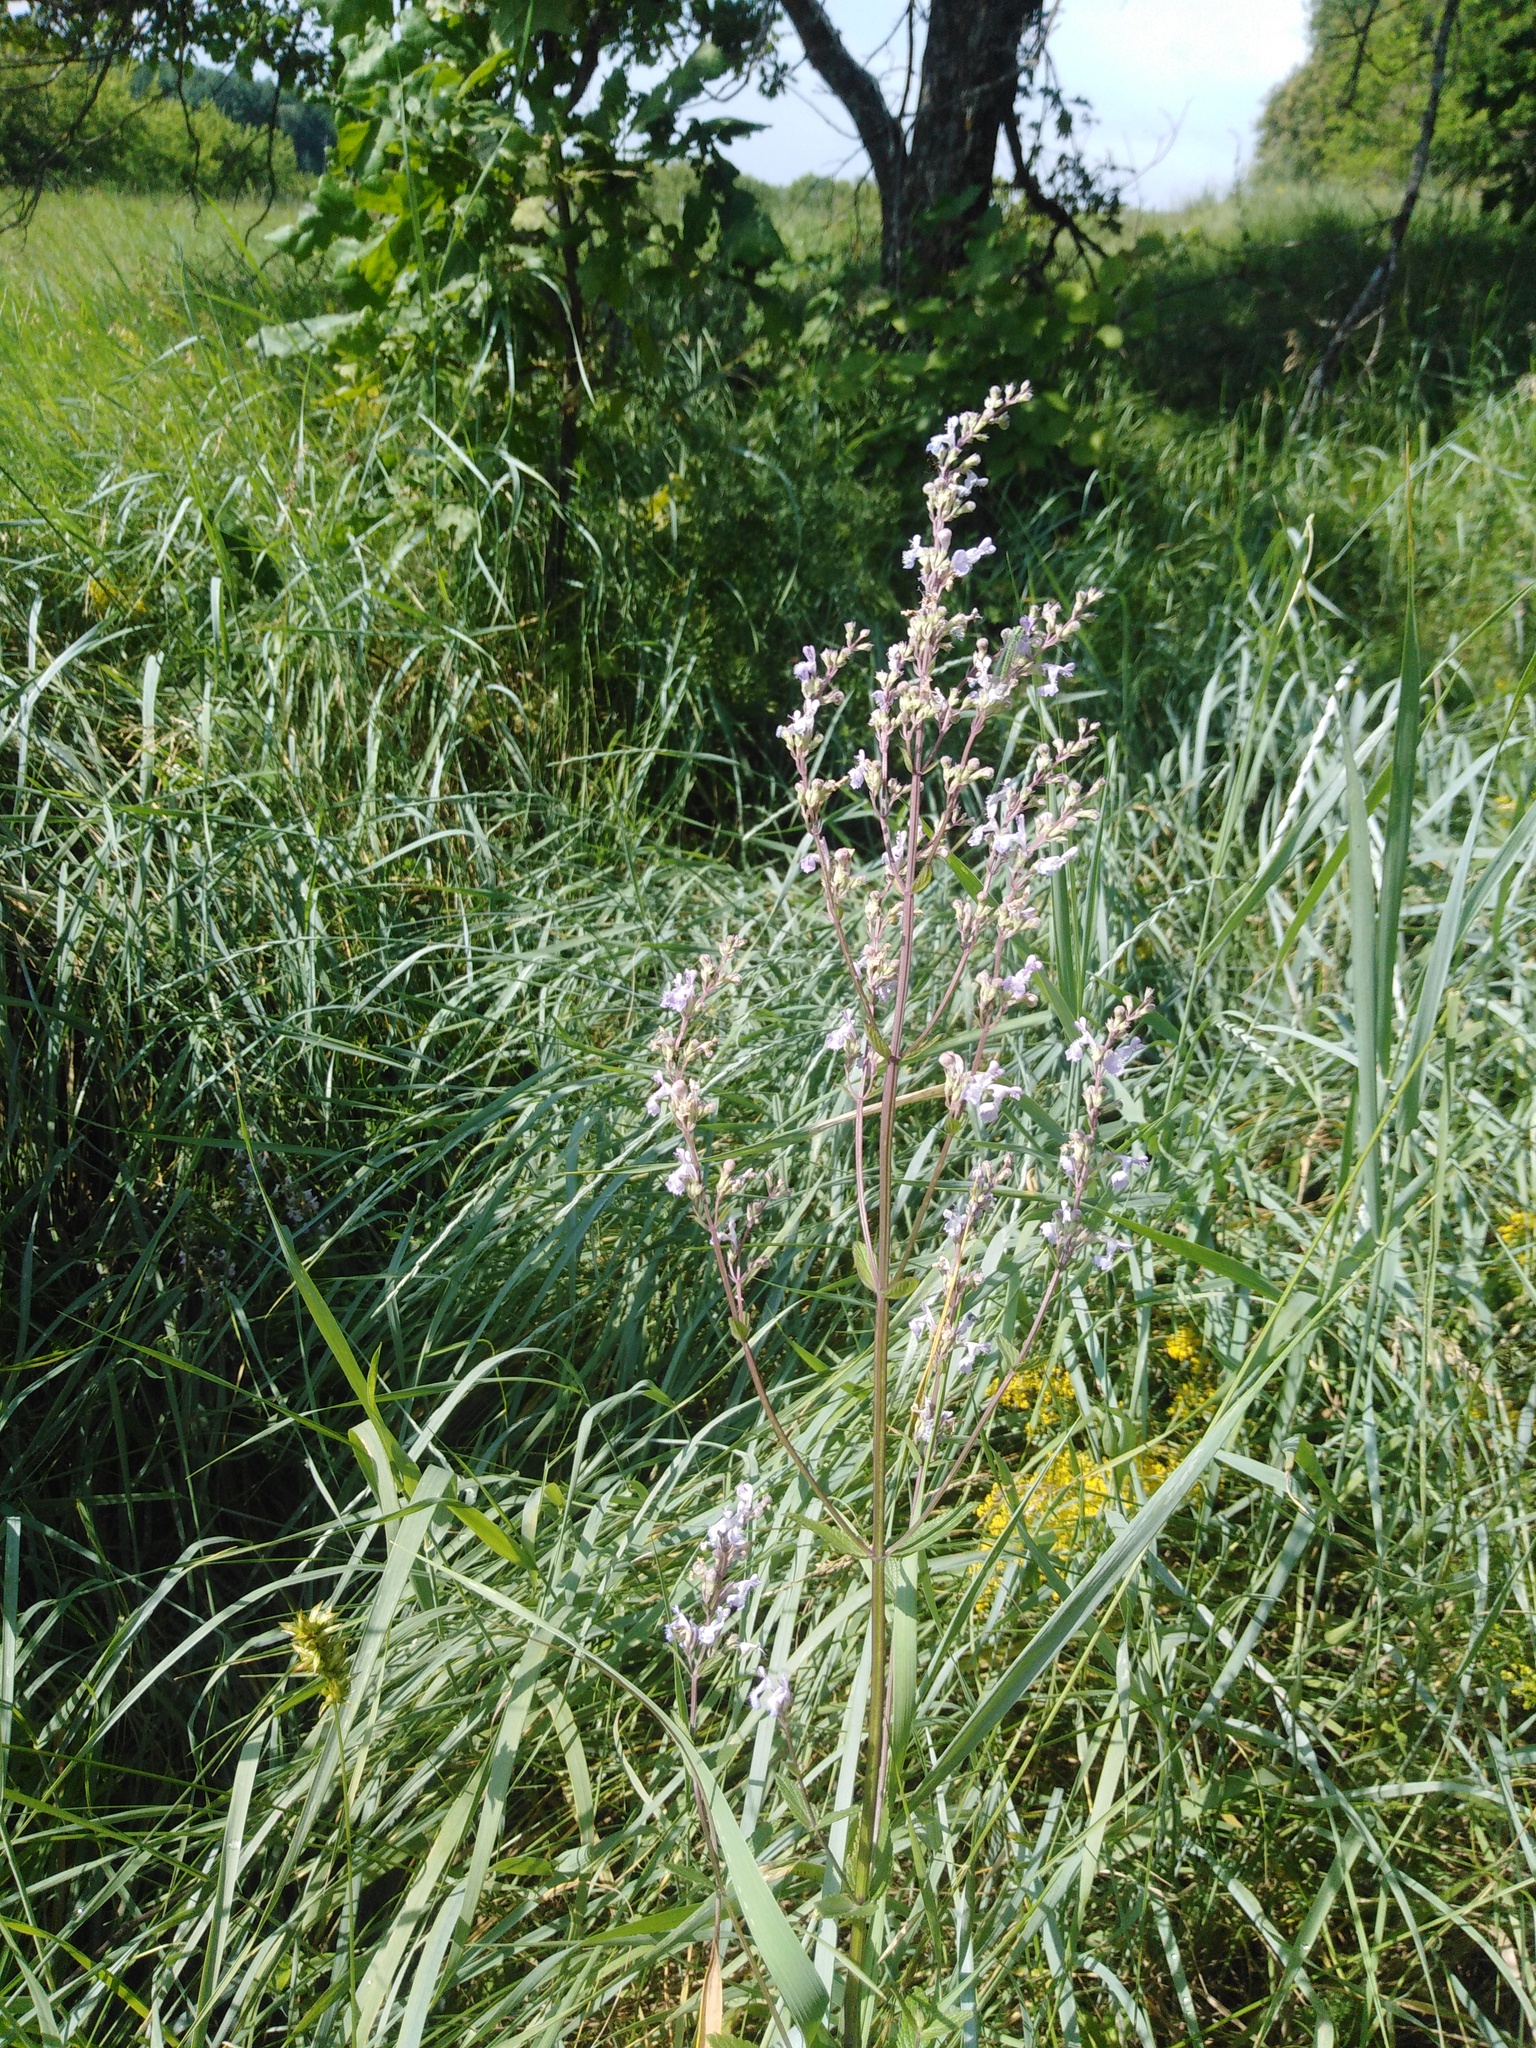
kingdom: Plantae
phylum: Tracheophyta
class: Magnoliopsida
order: Lamiales
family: Lamiaceae
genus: Nepeta
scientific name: Nepeta nuda
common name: Hairless catmint
